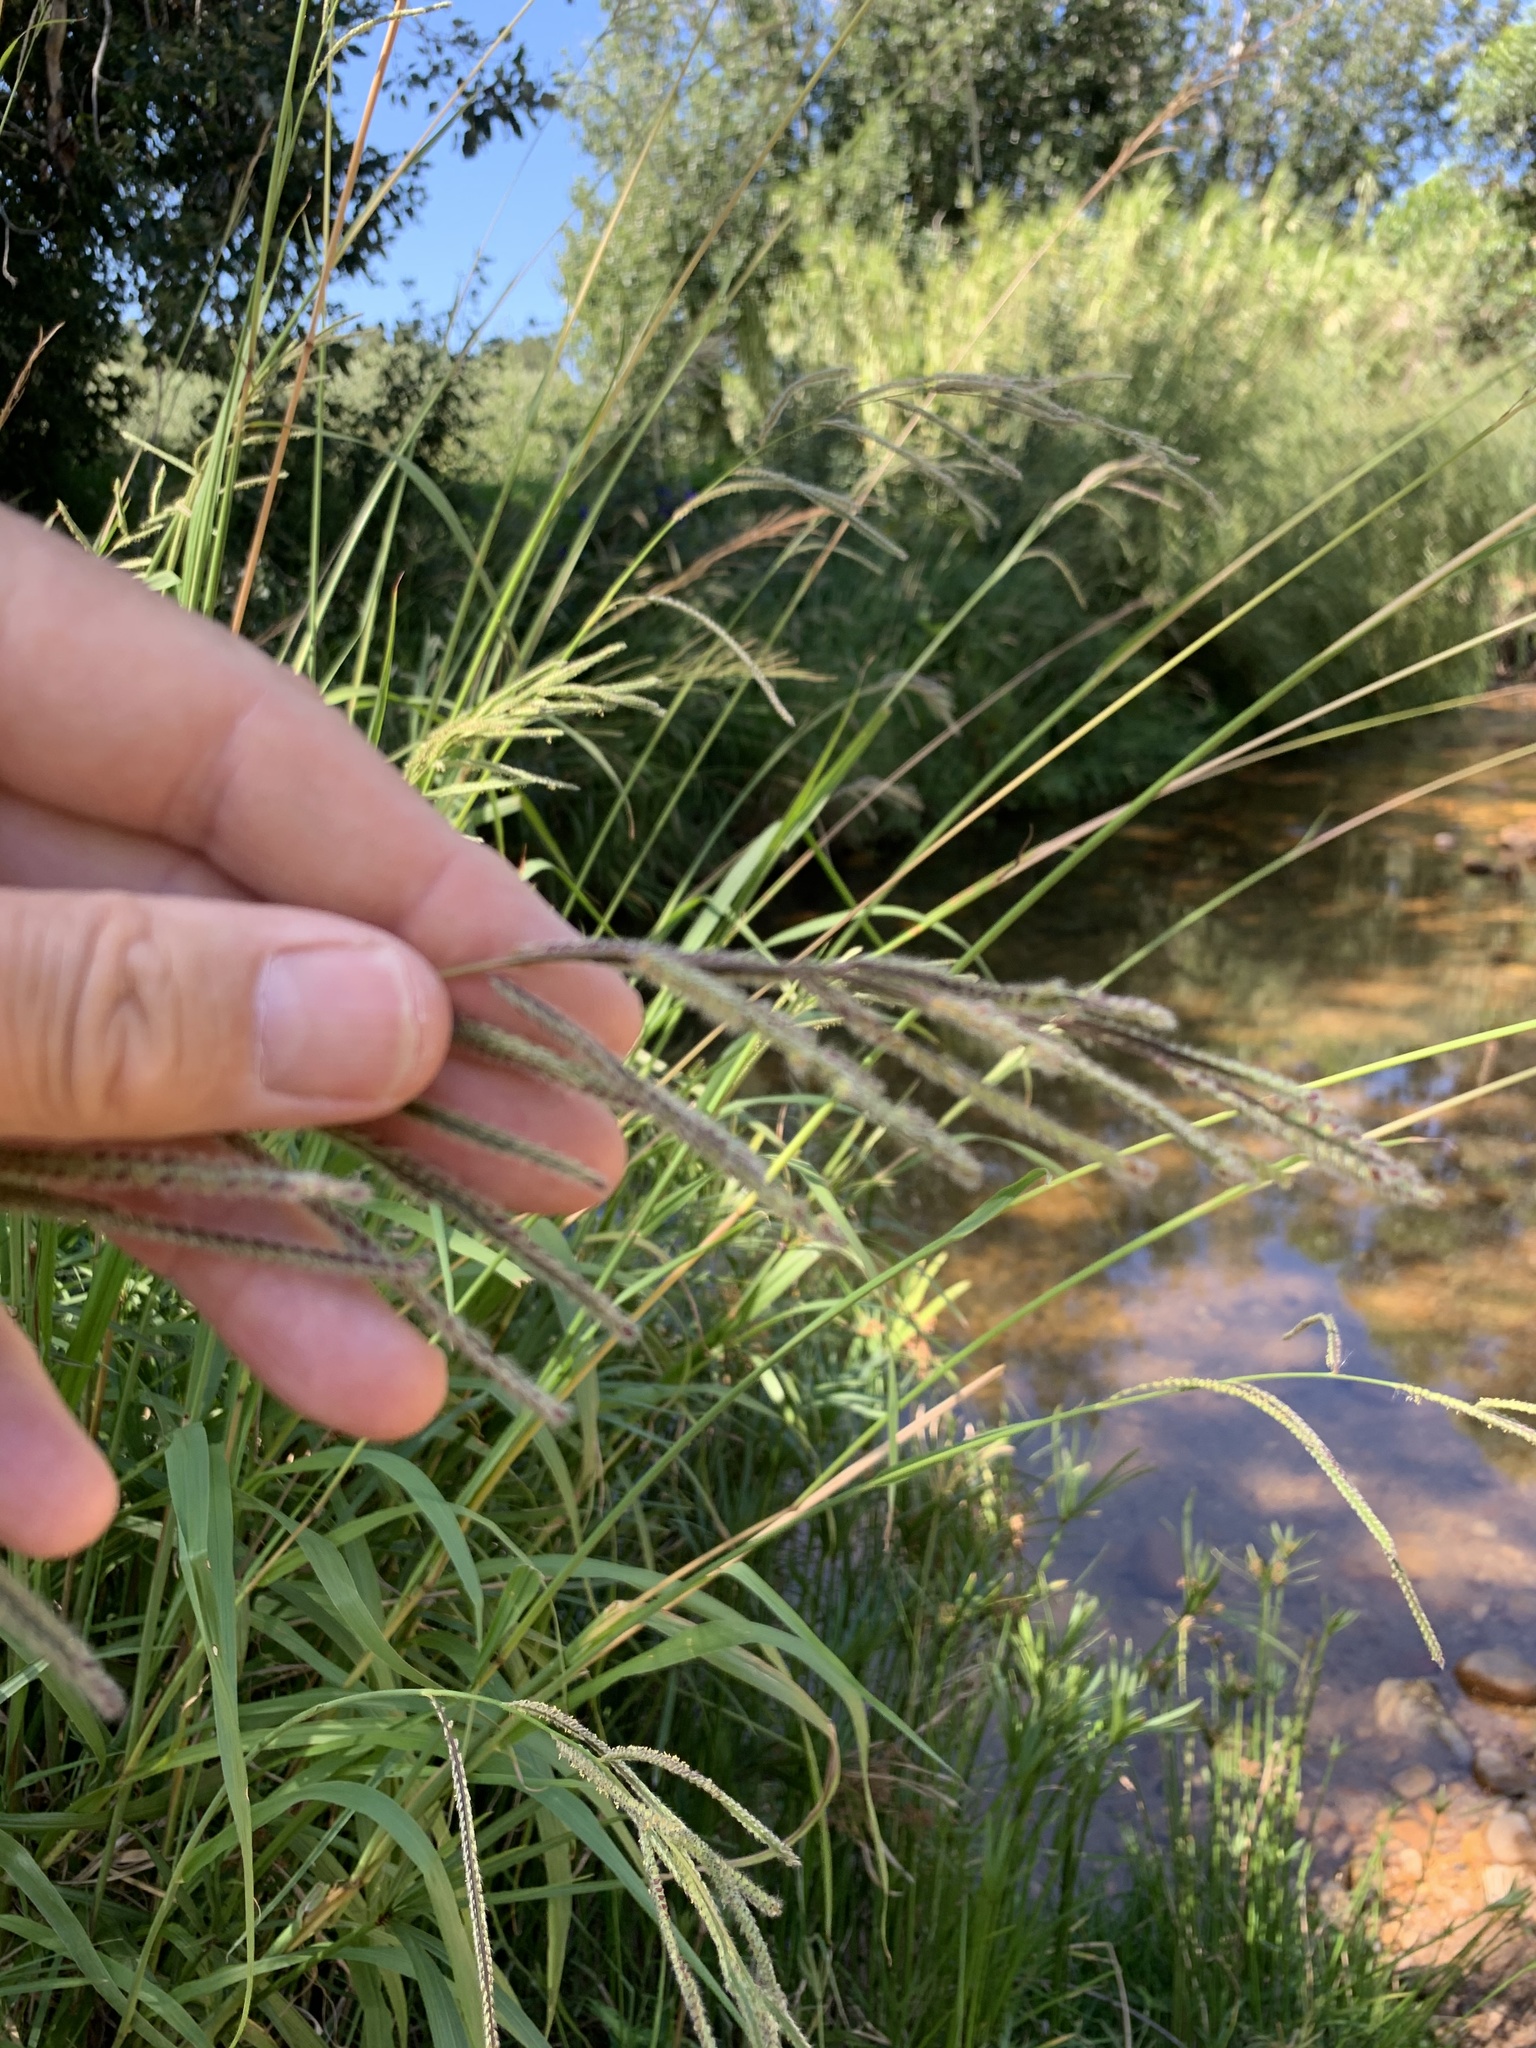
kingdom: Plantae
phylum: Tracheophyta
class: Liliopsida
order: Poales
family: Poaceae
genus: Paspalum
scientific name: Paspalum urvillei
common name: Vasey's grass
